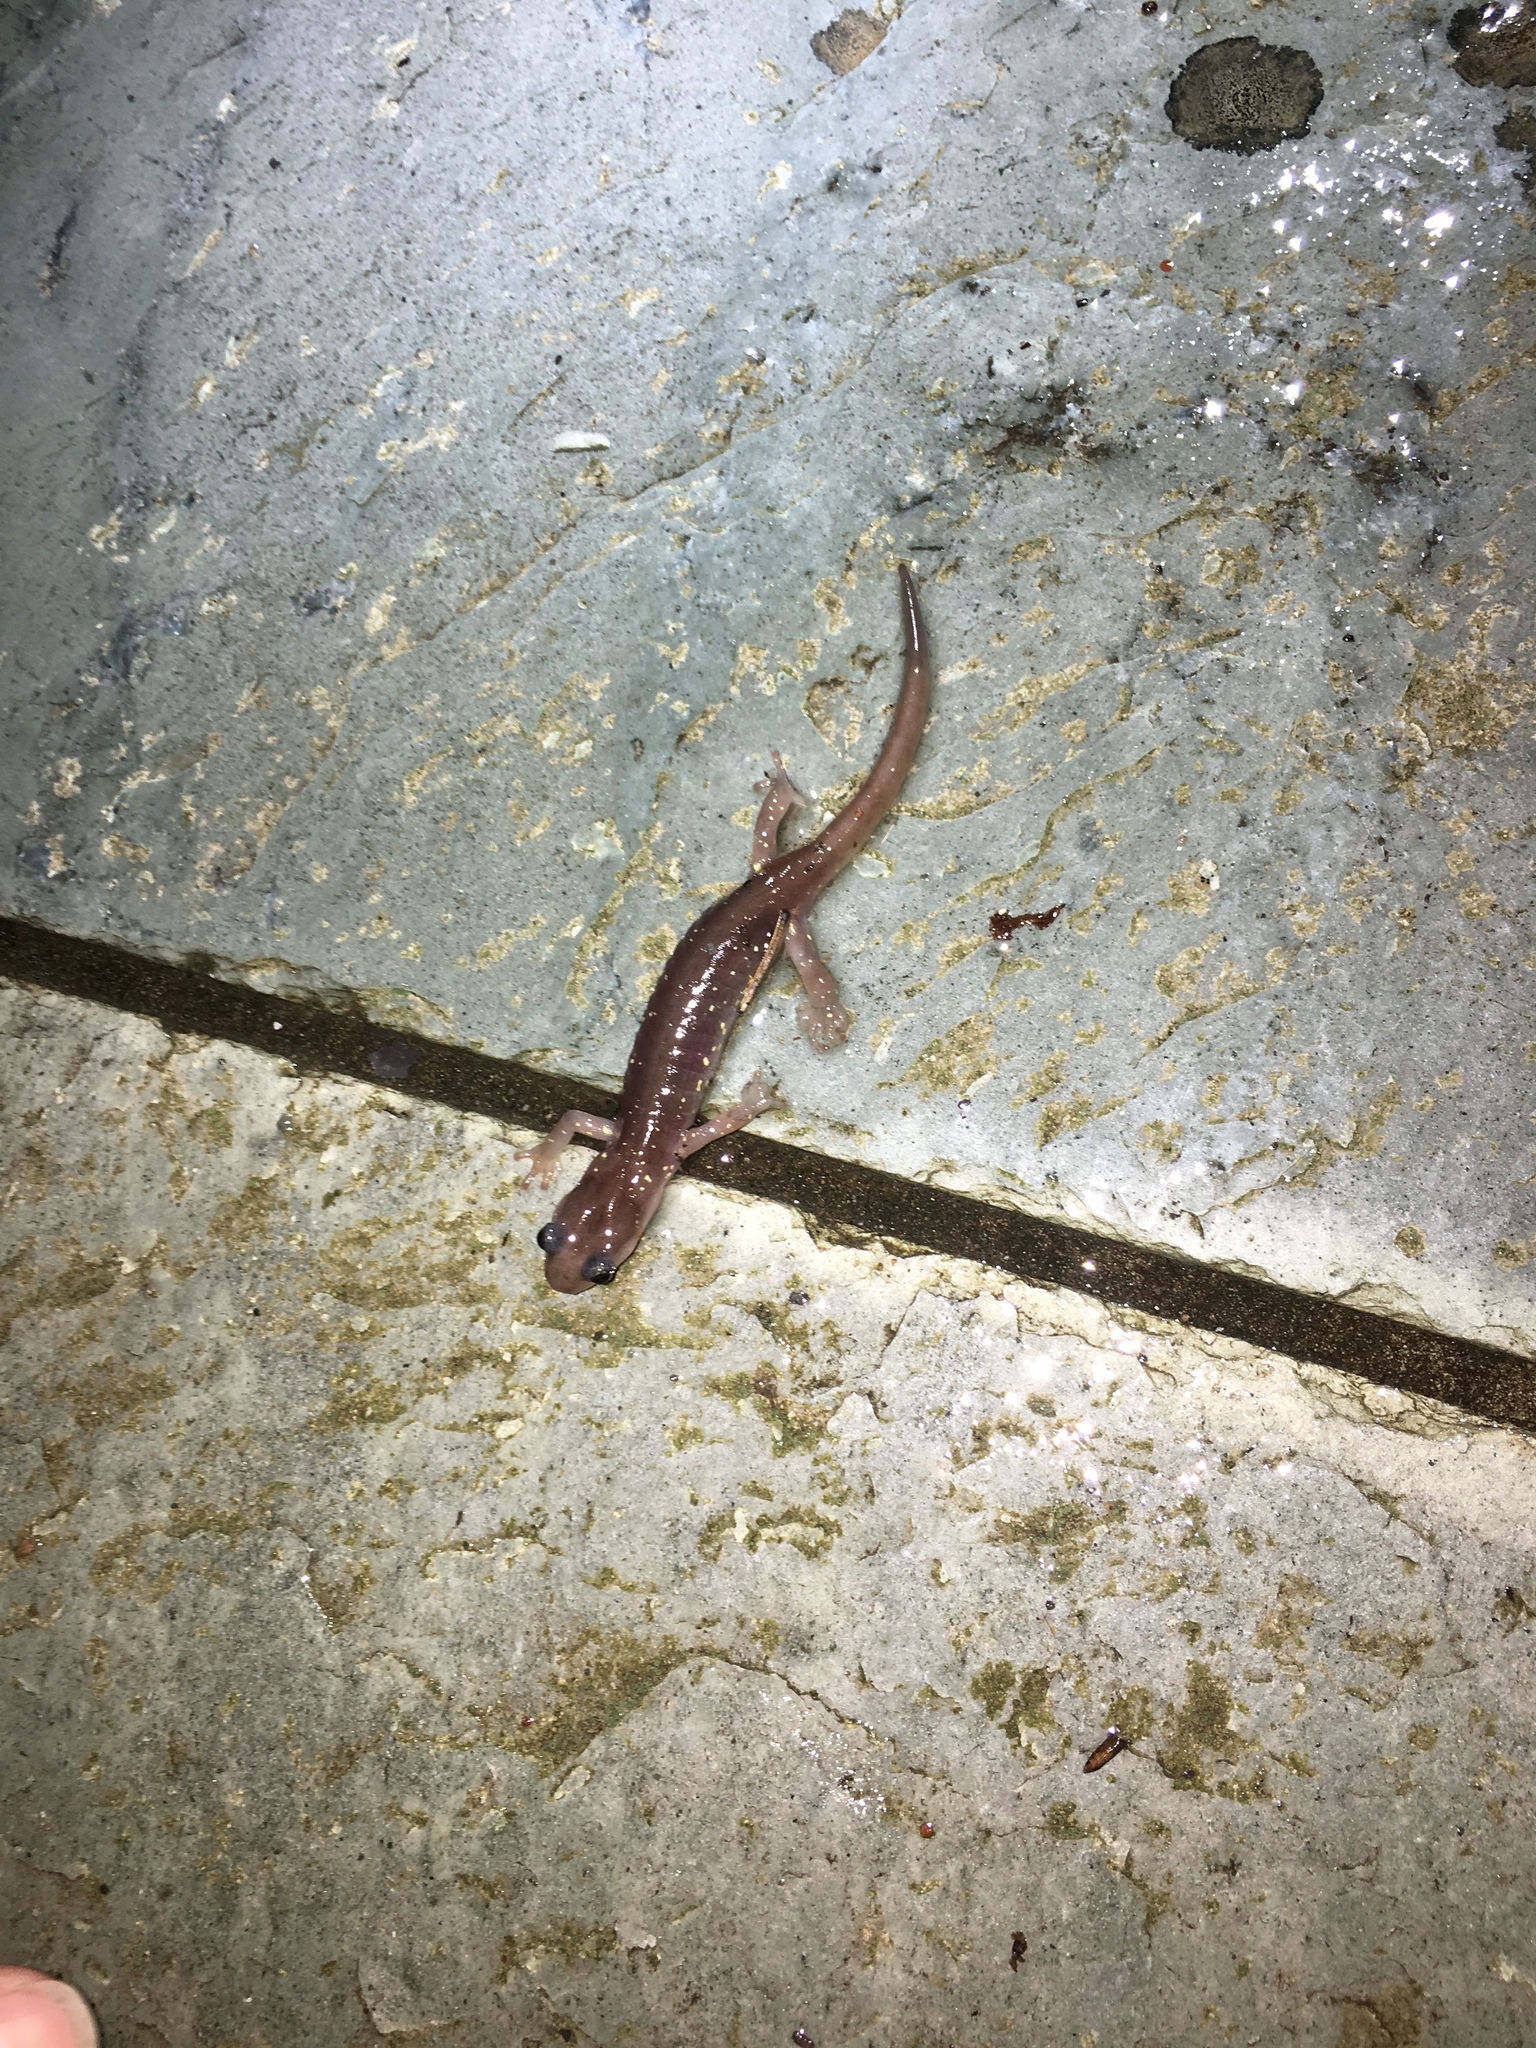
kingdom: Animalia
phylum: Chordata
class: Amphibia
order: Caudata
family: Plethodontidae
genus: Aneides
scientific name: Aneides lugubris
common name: Arboreal salamander
